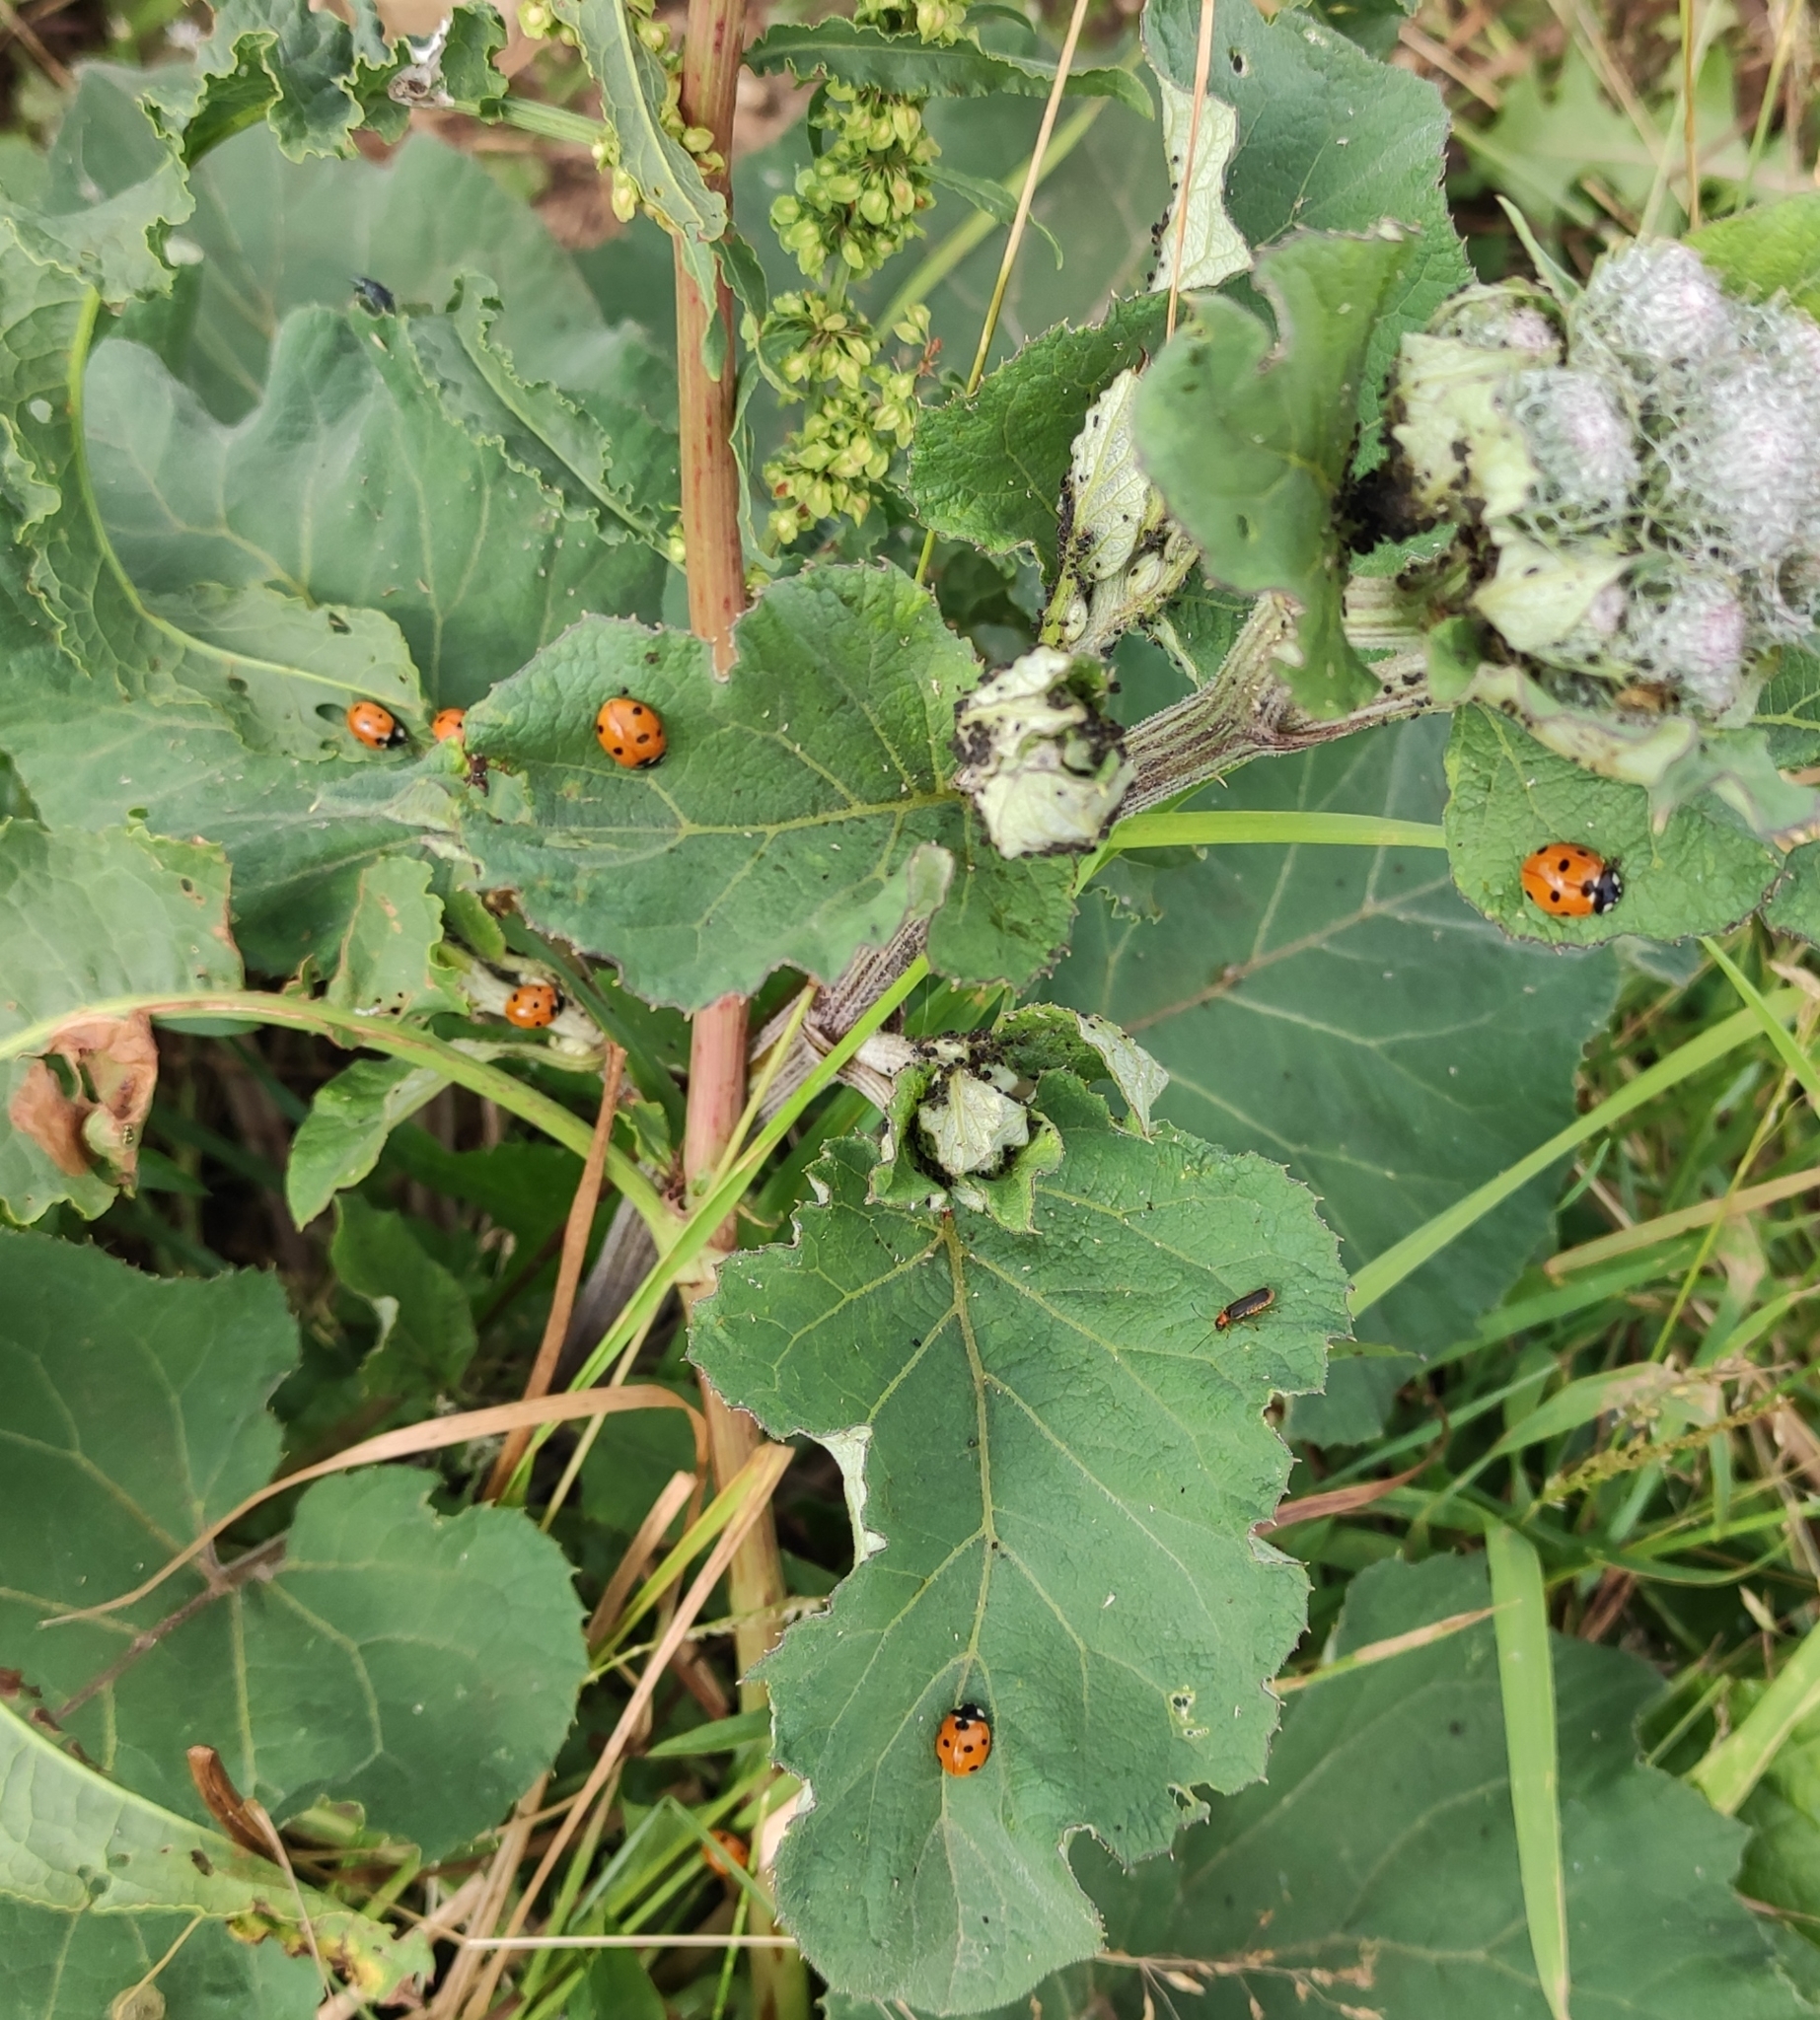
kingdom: Animalia
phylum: Arthropoda
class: Insecta
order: Coleoptera
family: Coccinellidae
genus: Coccinella
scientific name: Coccinella septempunctata
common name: Sevenspotted lady beetle
